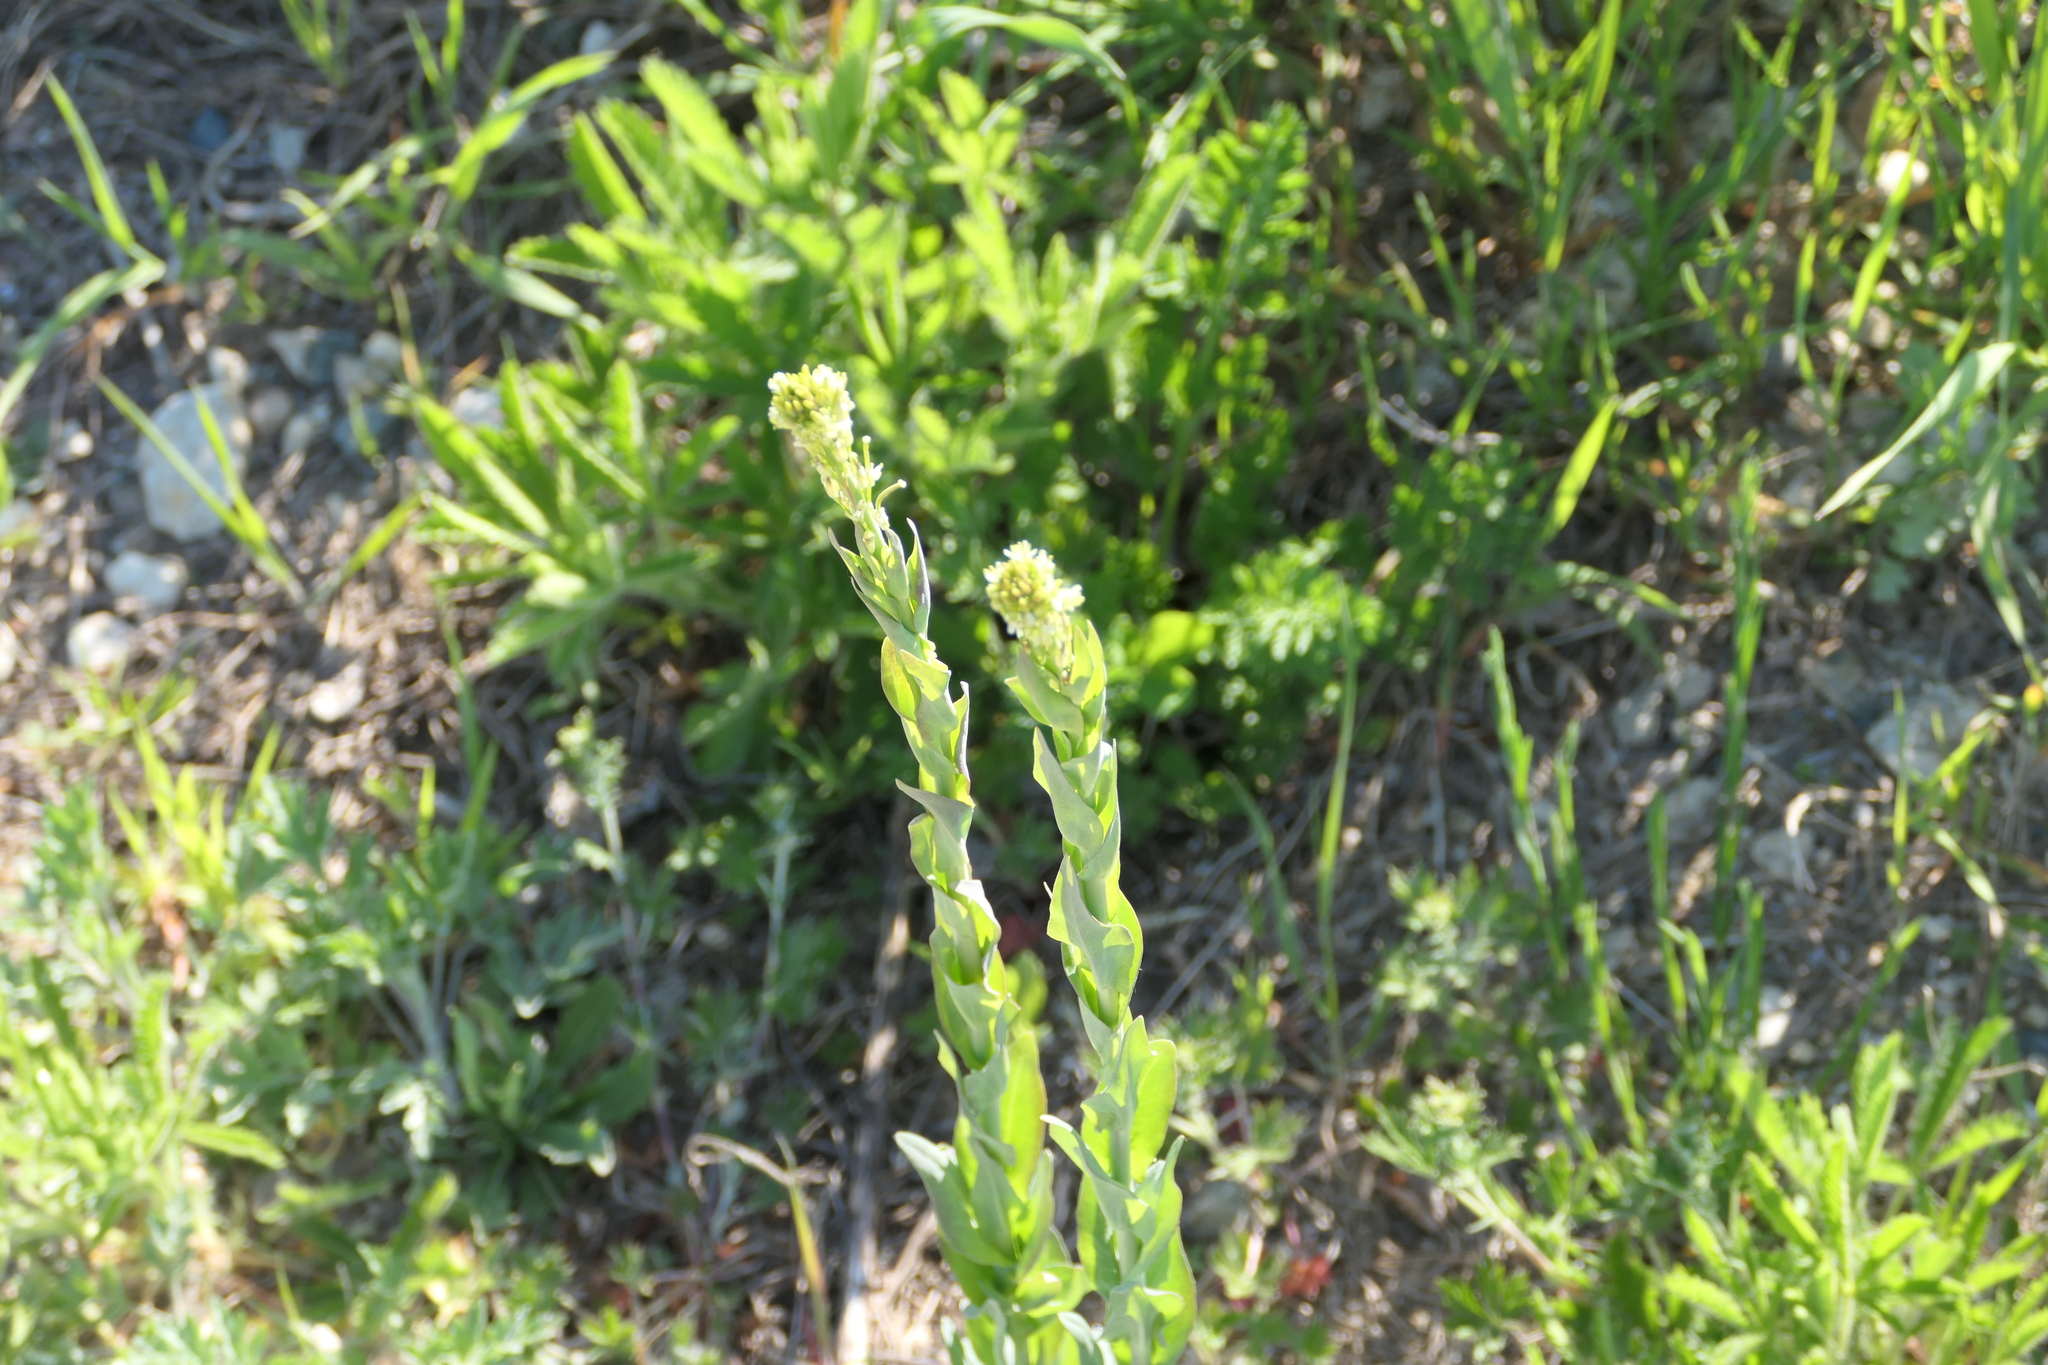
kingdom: Plantae
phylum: Tracheophyta
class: Magnoliopsida
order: Brassicales
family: Brassicaceae
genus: Turritis
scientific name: Turritis glabra
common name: Tower rockcress
